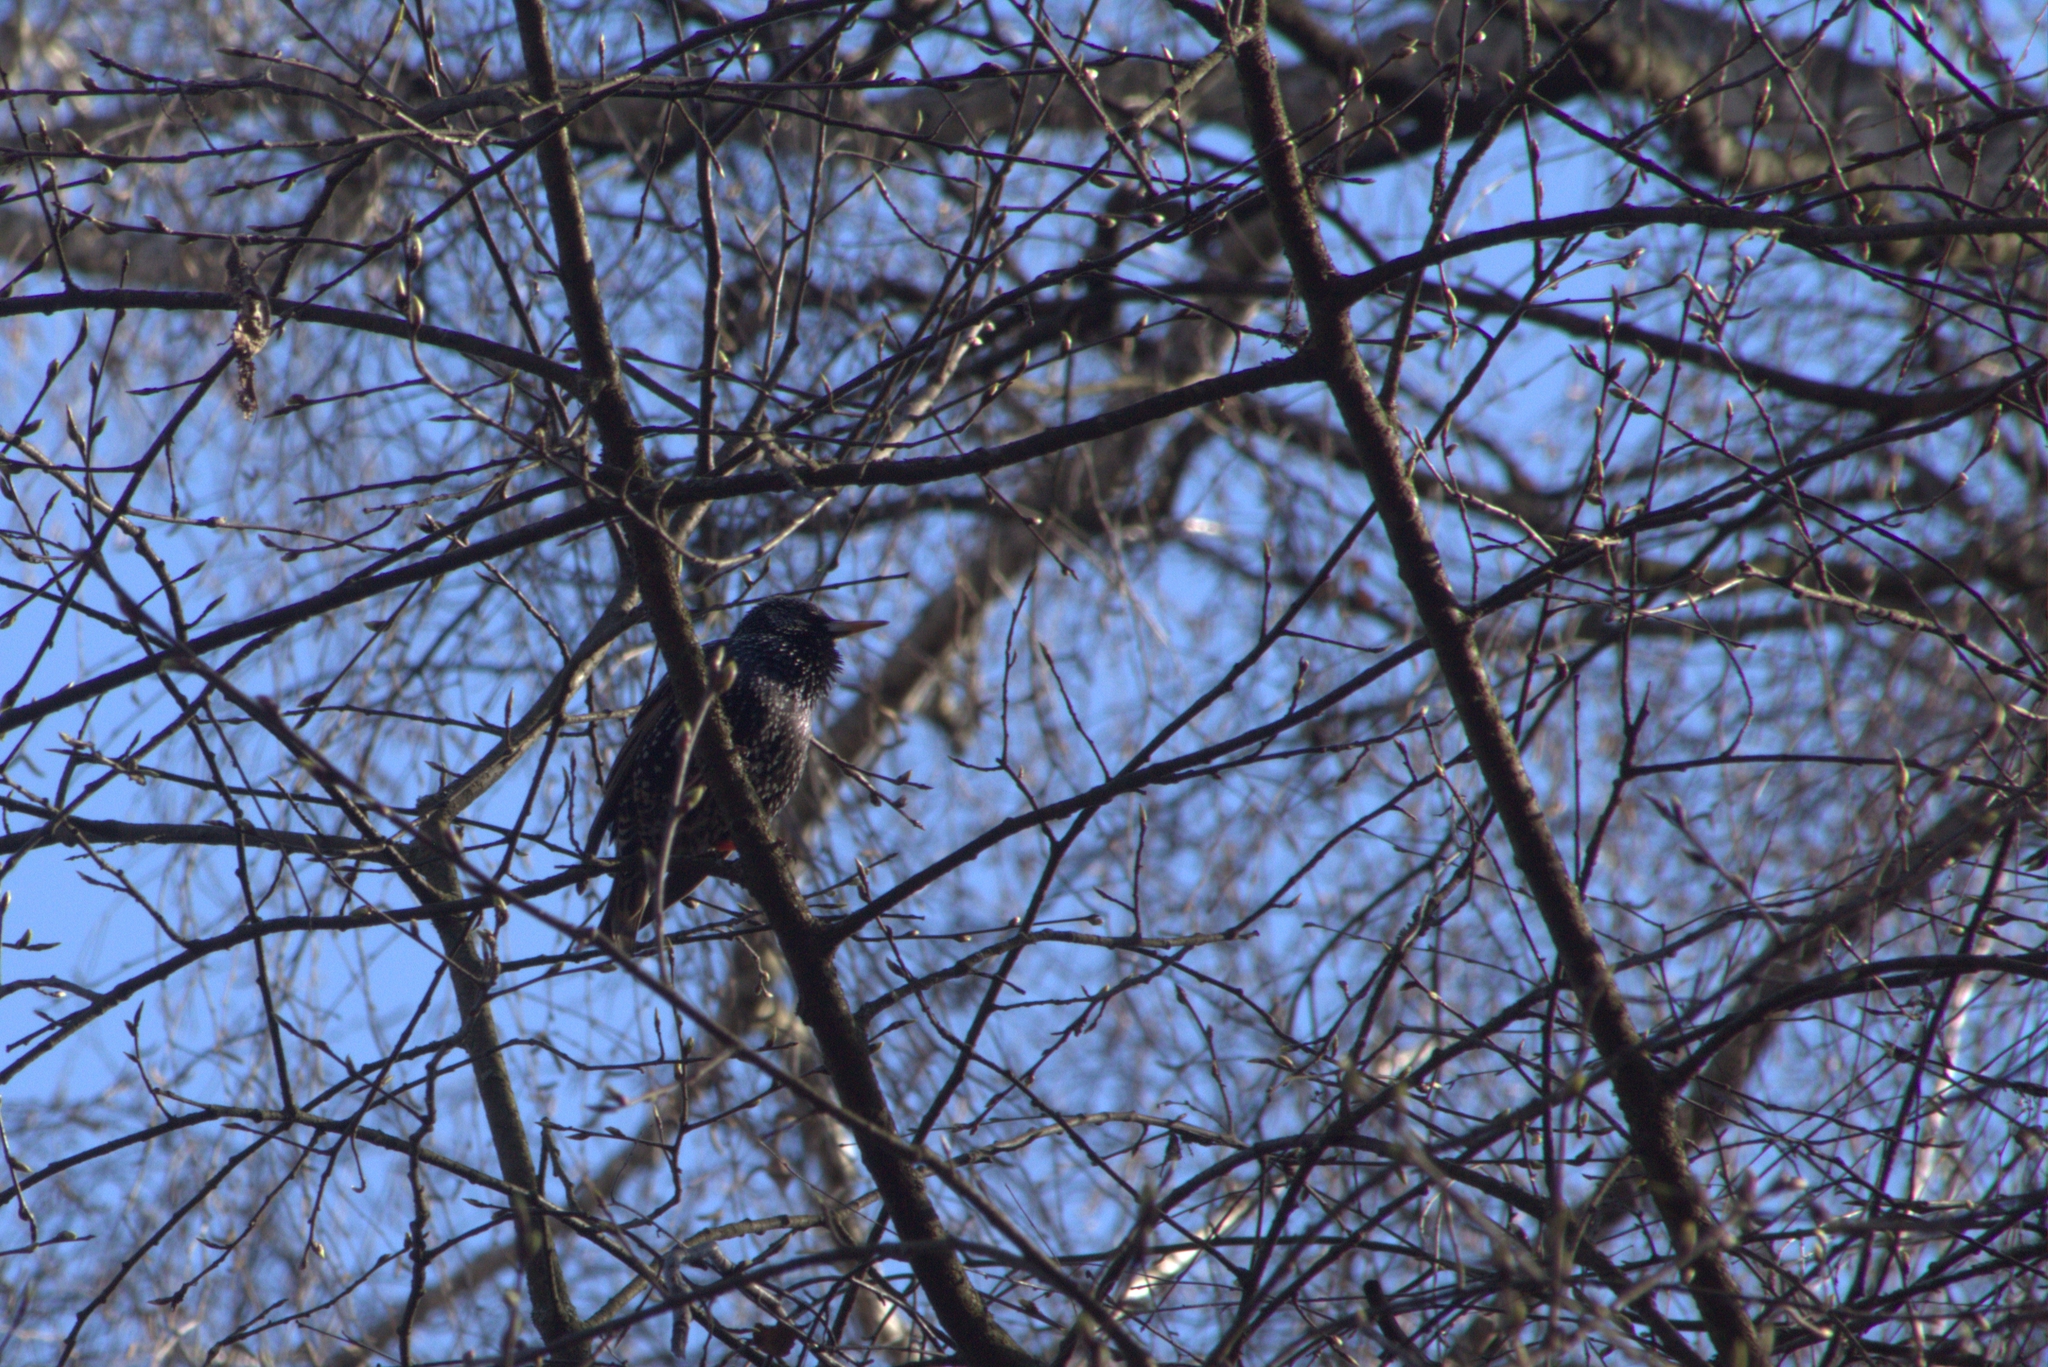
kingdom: Animalia
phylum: Chordata
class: Aves
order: Passeriformes
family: Sturnidae
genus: Sturnus
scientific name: Sturnus vulgaris
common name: Common starling
